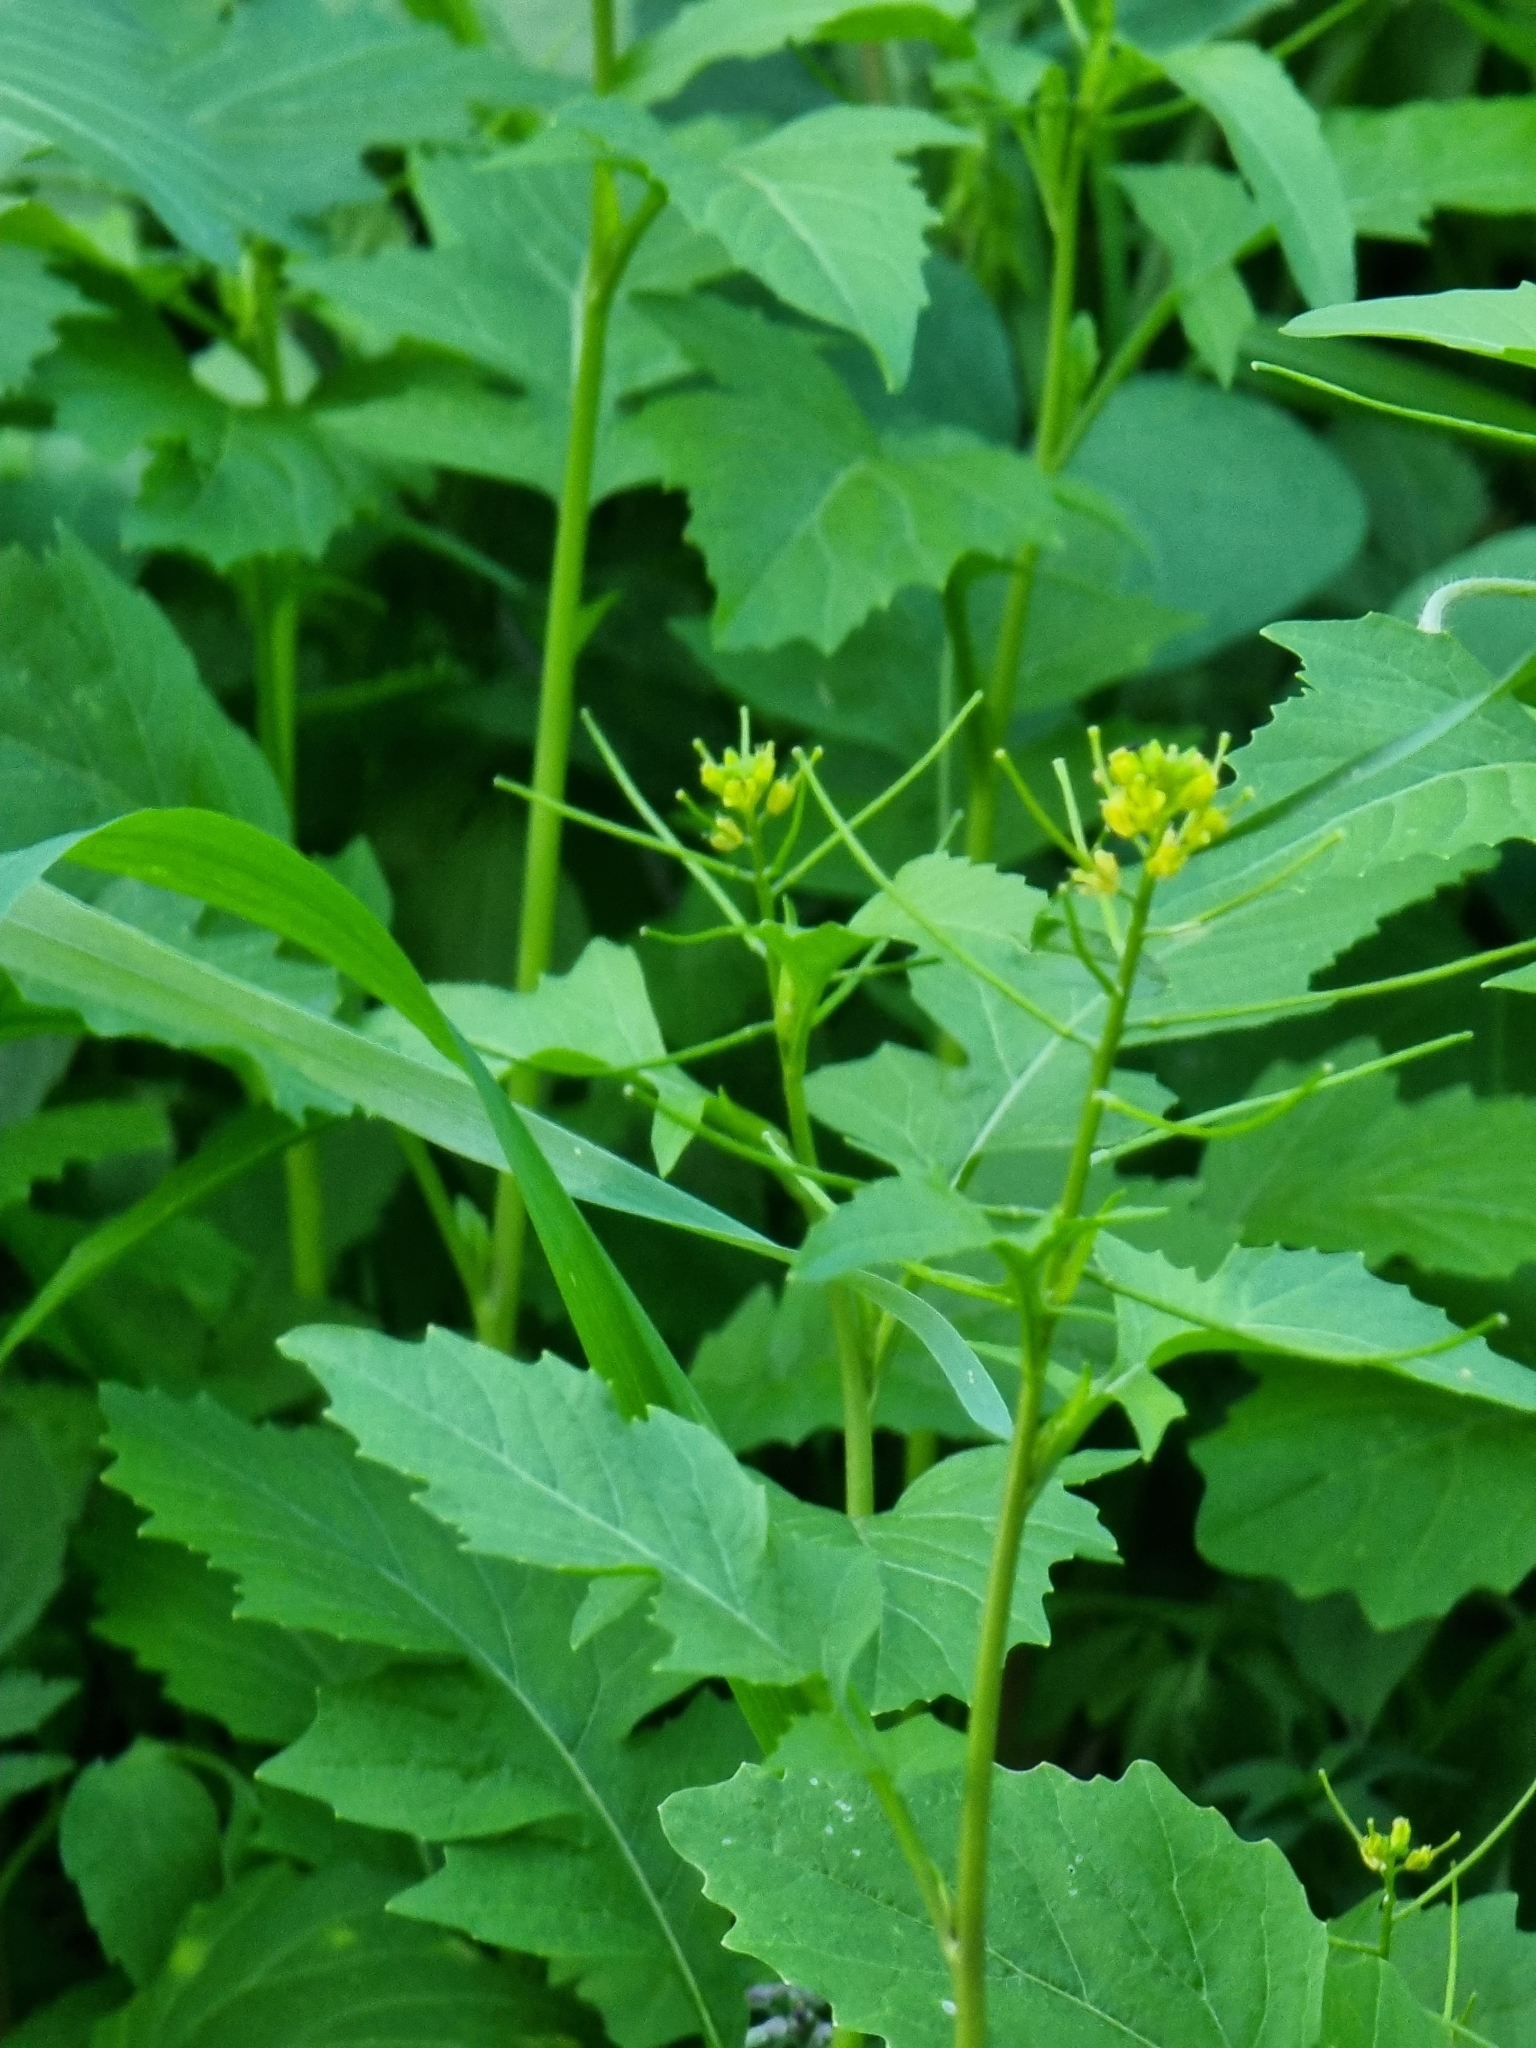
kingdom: Plantae
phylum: Tracheophyta
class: Magnoliopsida
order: Brassicales
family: Brassicaceae
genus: Sisymbrium
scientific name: Sisymbrium erysimoides
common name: French rocket
